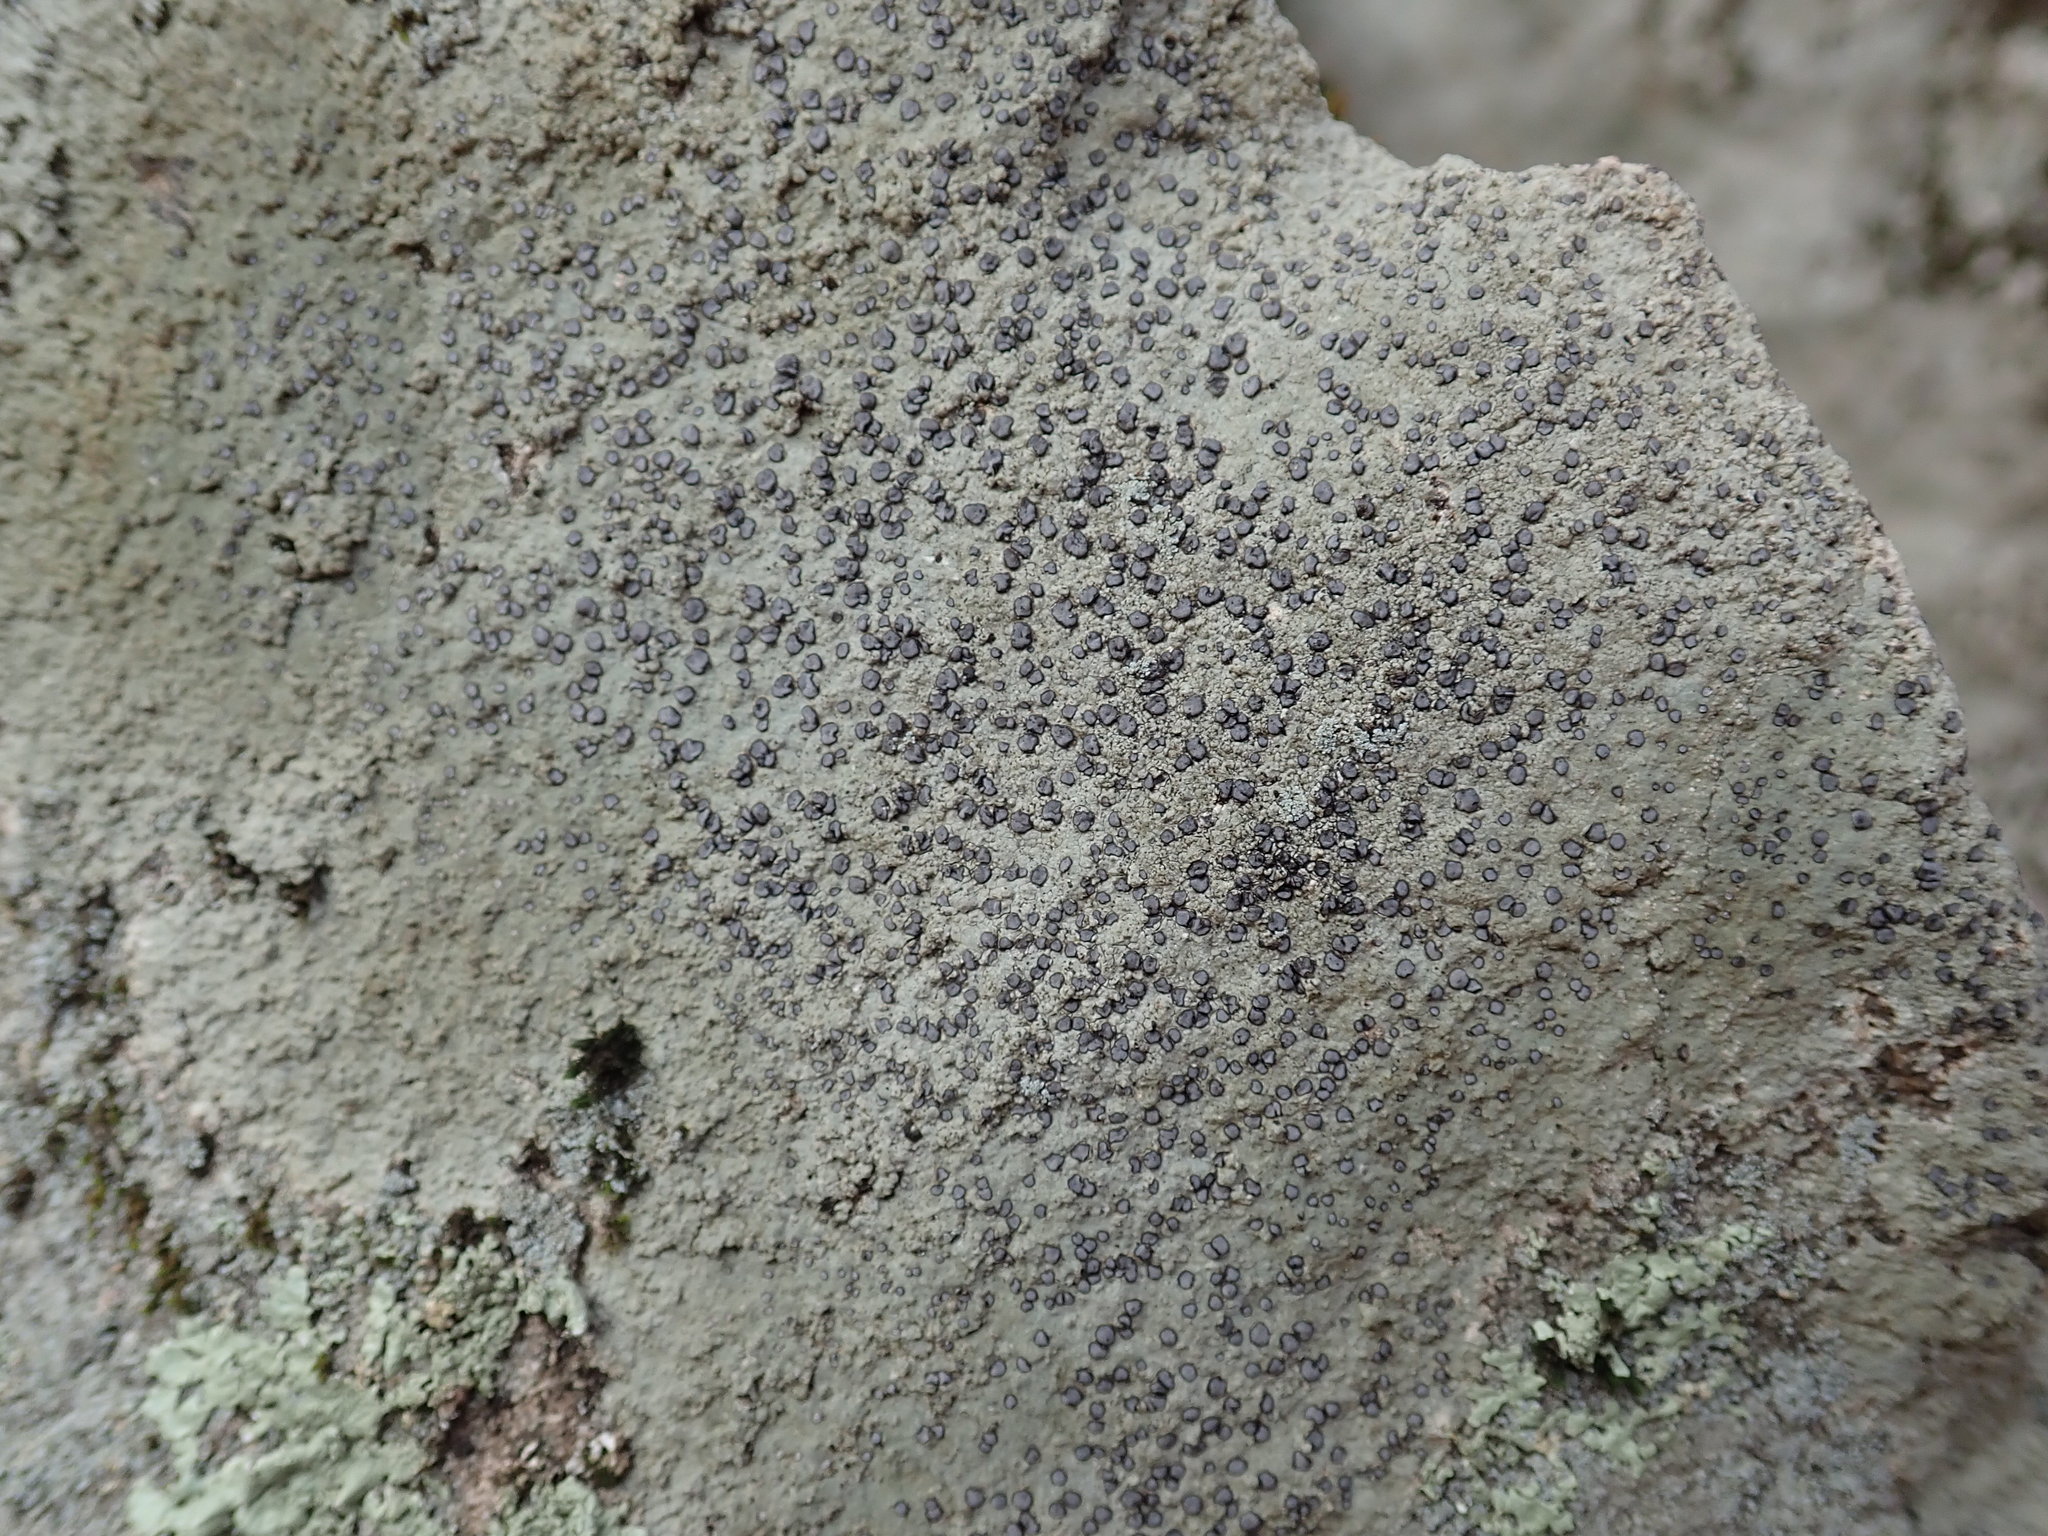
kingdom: Fungi
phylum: Ascomycota
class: Lecanoromycetes
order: Lecideales
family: Lecideaceae
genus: Porpidia
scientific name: Porpidia albocaerulescens
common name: Smokey-eyed boulder lichen
